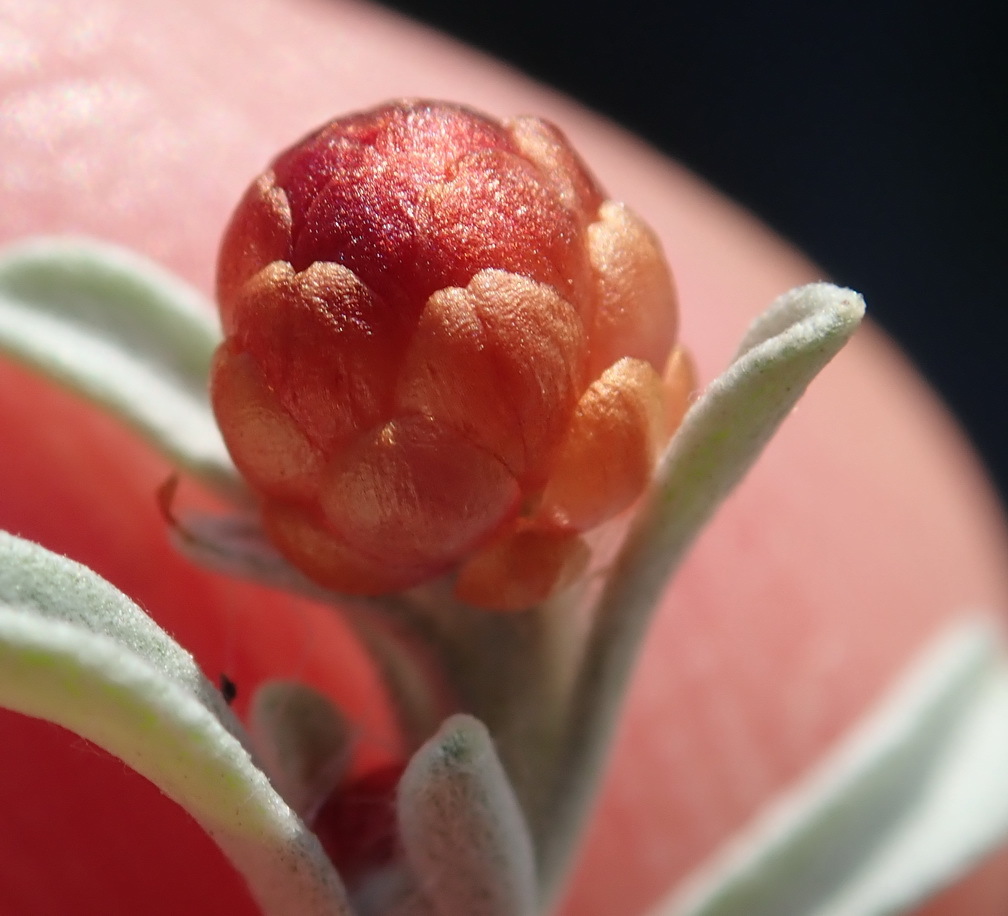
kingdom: Plantae
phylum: Tracheophyta
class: Magnoliopsida
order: Asterales
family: Asteraceae
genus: Helichrysum
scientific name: Helichrysum cochleariforme
